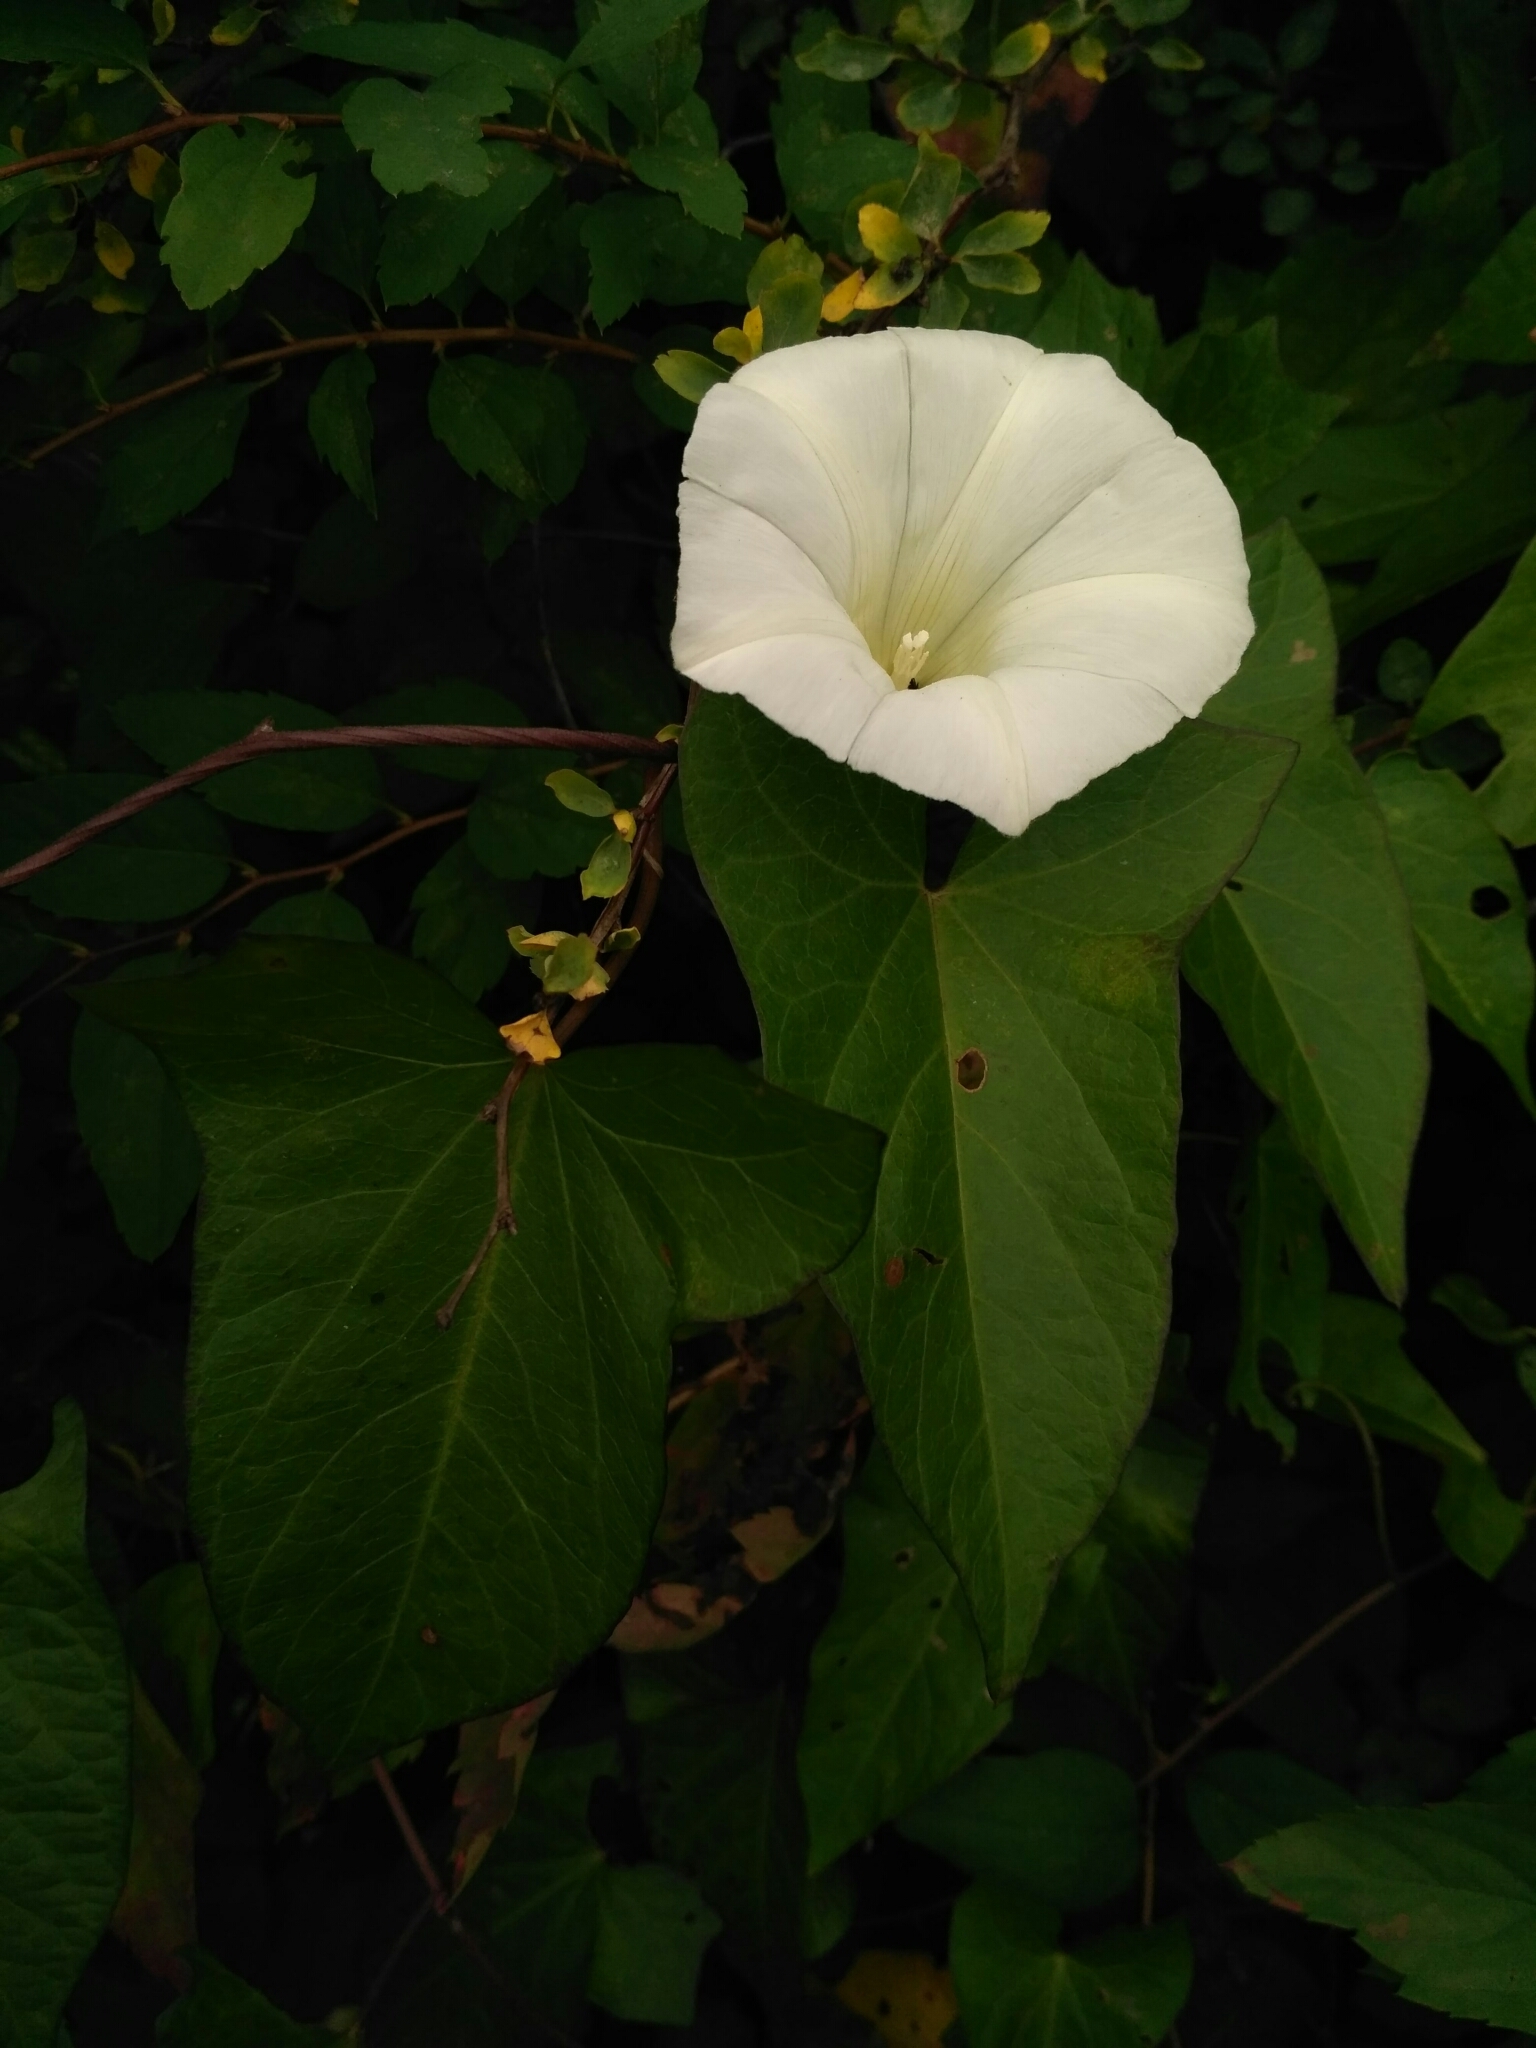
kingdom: Plantae
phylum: Tracheophyta
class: Magnoliopsida
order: Solanales
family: Convolvulaceae
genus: Calystegia
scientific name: Calystegia sepium
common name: Hedge bindweed
